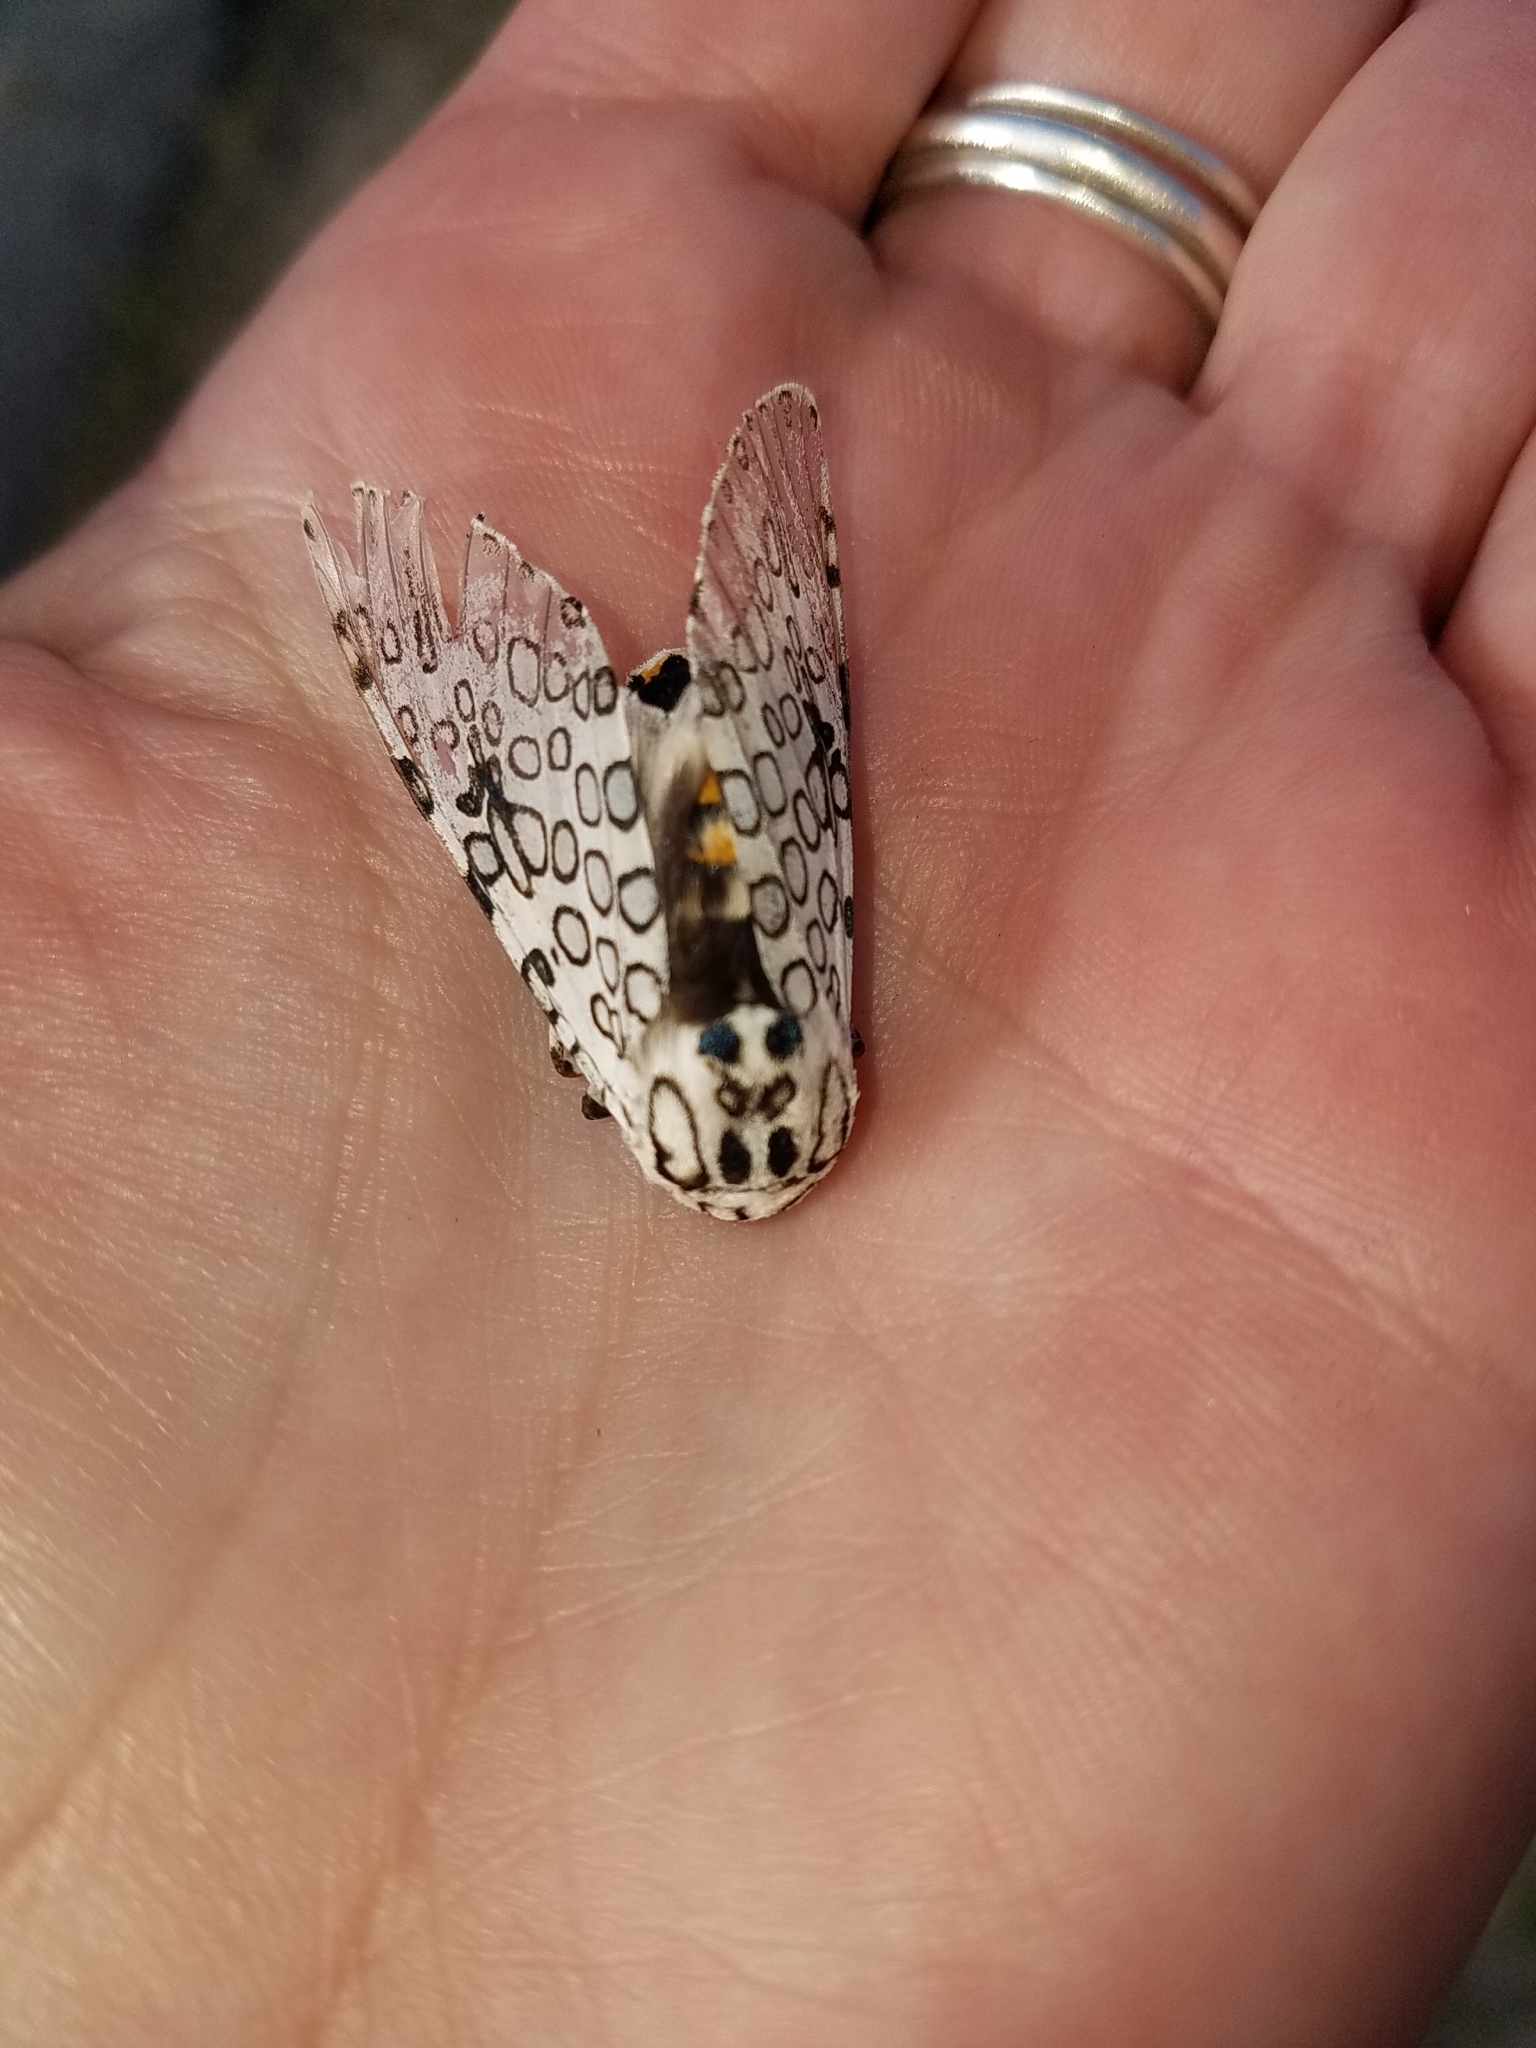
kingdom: Animalia
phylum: Arthropoda
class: Insecta
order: Lepidoptera
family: Erebidae
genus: Hypercompe
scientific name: Hypercompe scribonia
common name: Giant leopard moth
